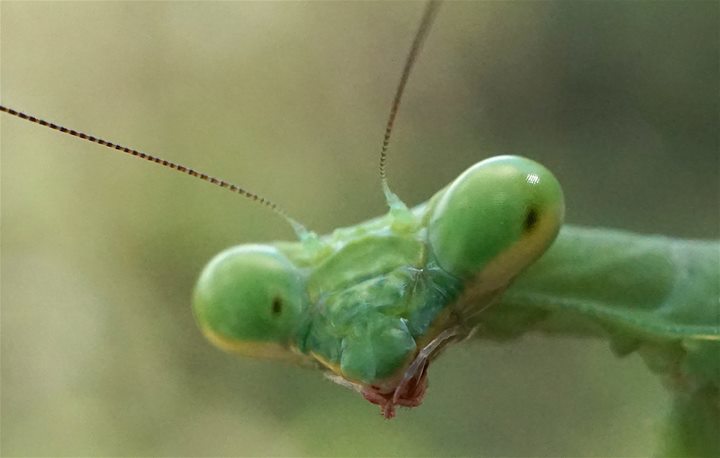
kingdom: Animalia
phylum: Arthropoda
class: Insecta
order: Mantodea
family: Mantidae
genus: Stagmomantis
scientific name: Stagmomantis carolina
